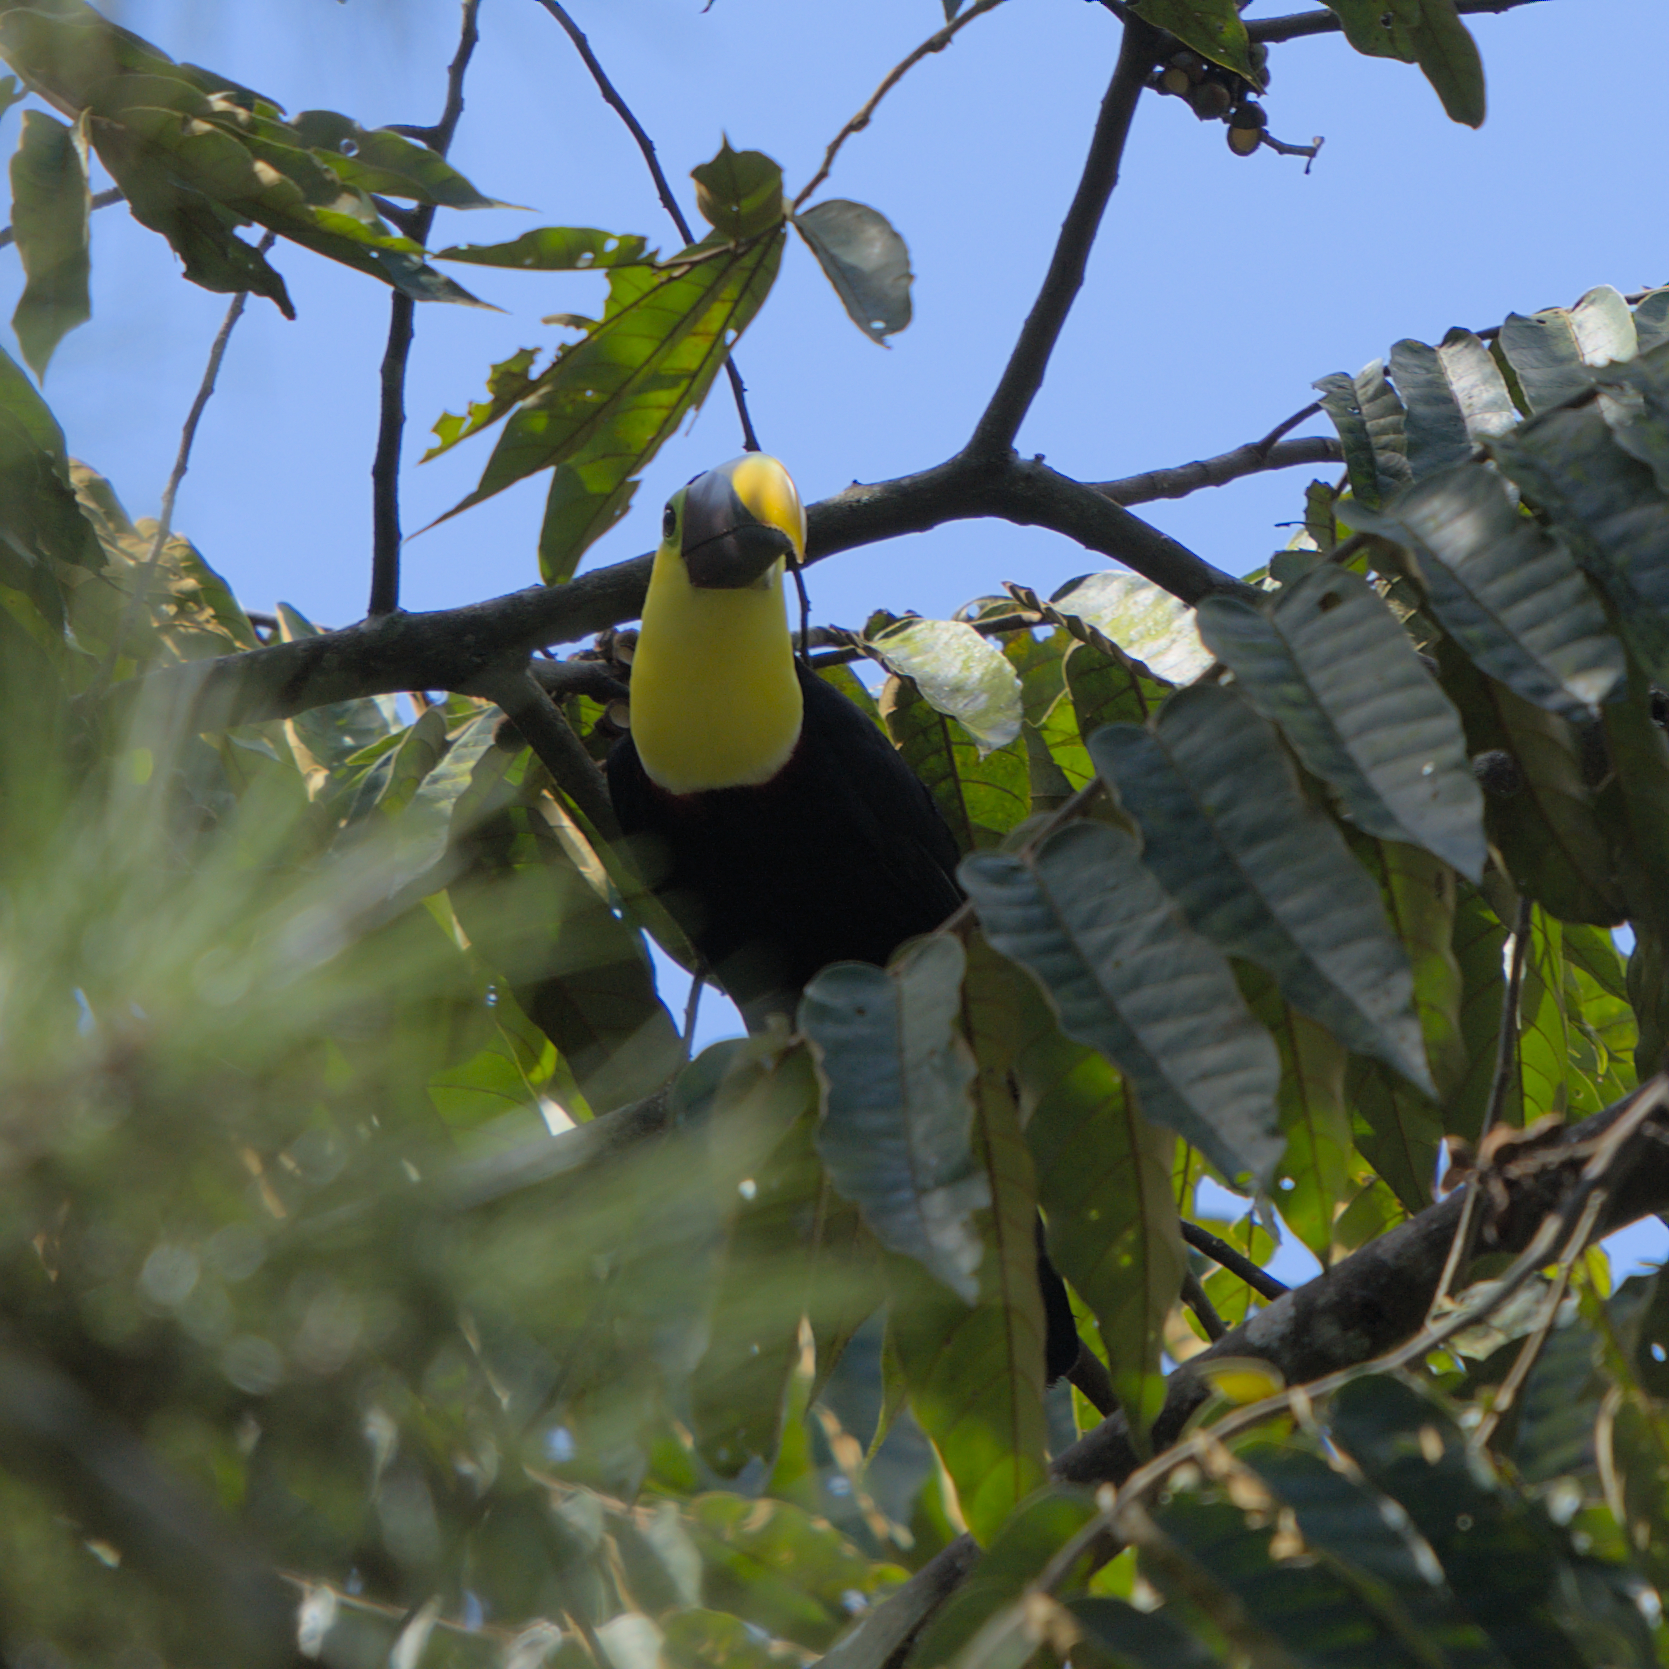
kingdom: Animalia
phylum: Chordata
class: Aves
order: Piciformes
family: Ramphastidae
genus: Ramphastos
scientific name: Ramphastos ambiguus
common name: Yellow-throated toucan
